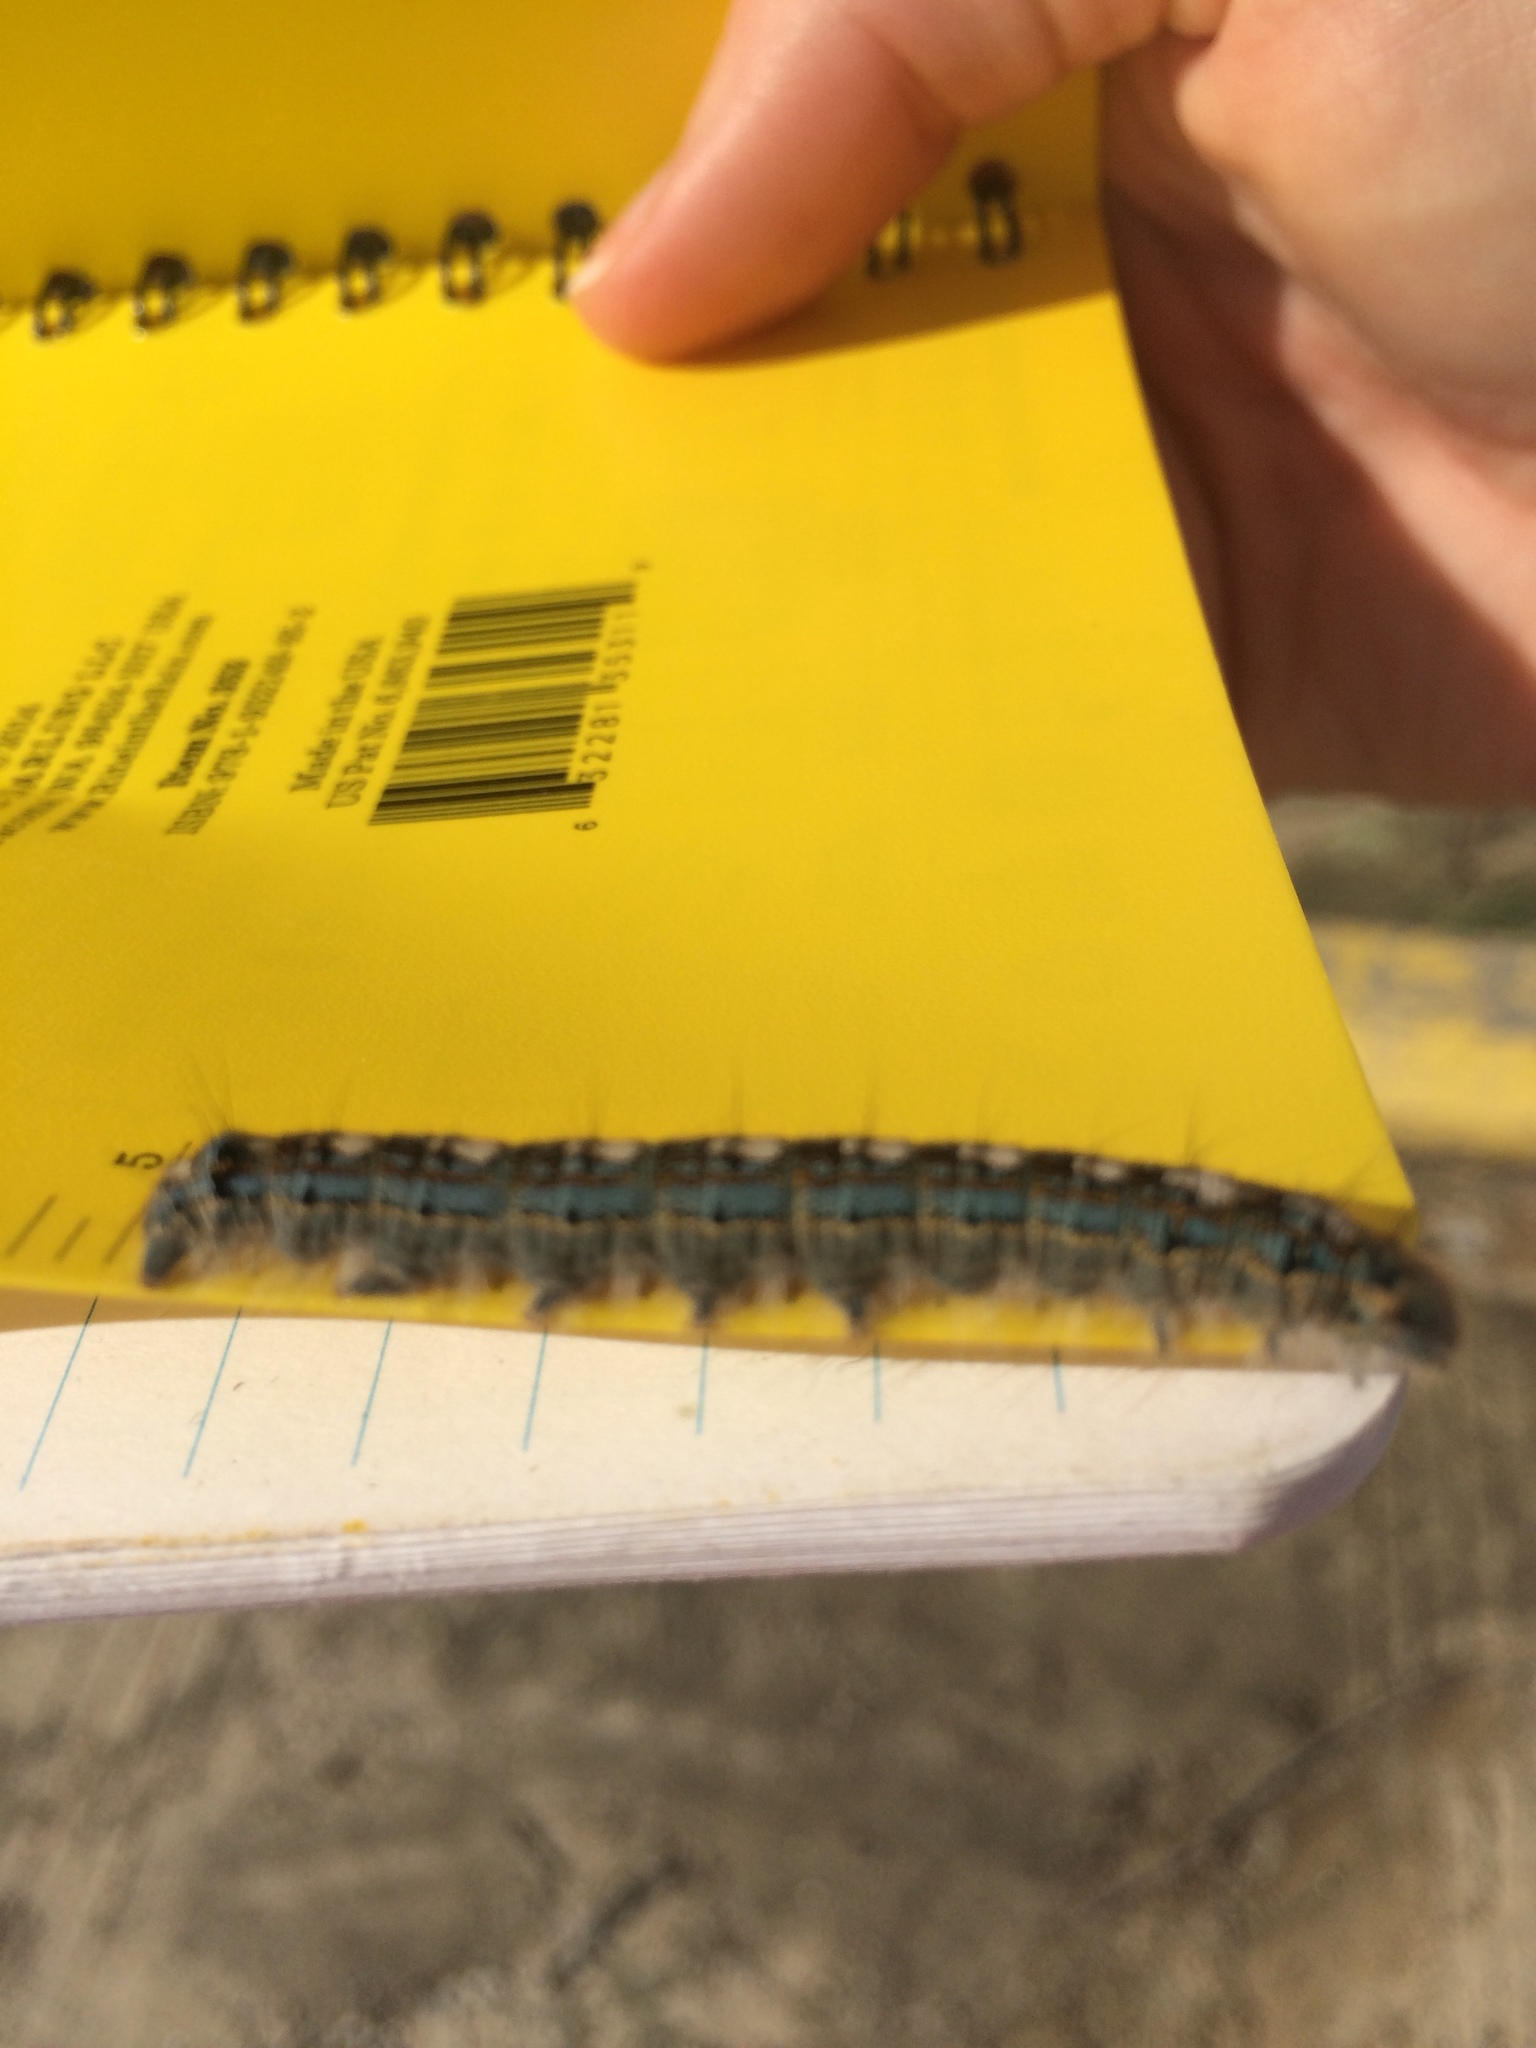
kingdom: Animalia
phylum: Arthropoda
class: Insecta
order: Lepidoptera
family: Lasiocampidae
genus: Malacosoma
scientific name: Malacosoma disstria
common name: Forest tent caterpillar
